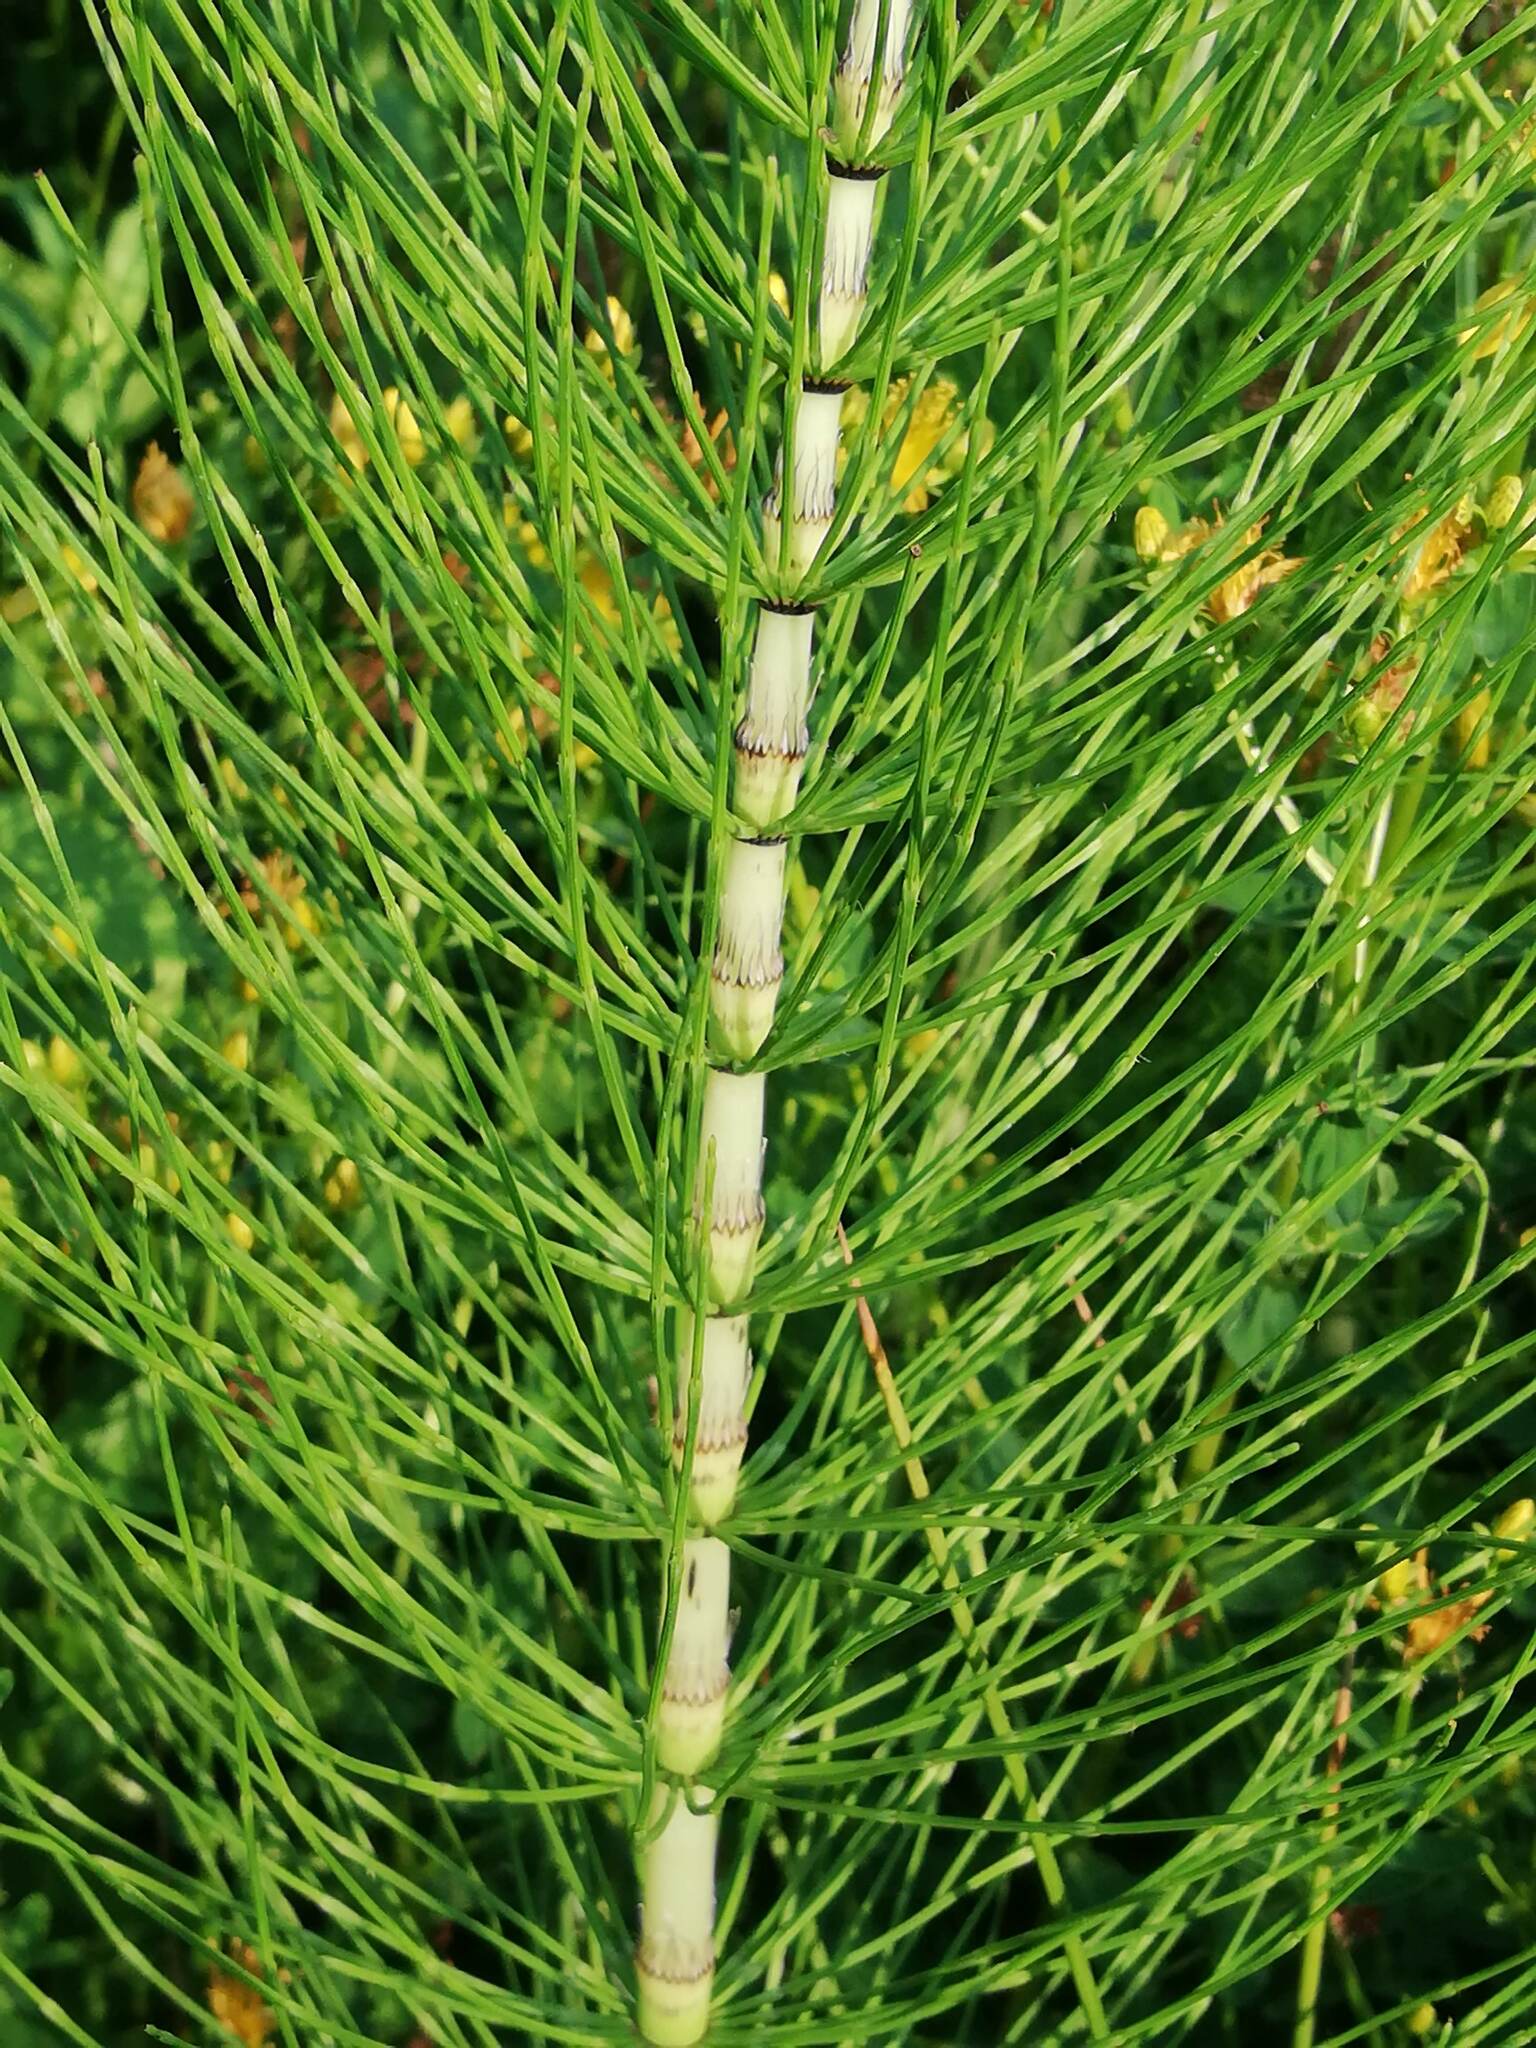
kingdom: Plantae
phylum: Tracheophyta
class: Polypodiopsida
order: Equisetales
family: Equisetaceae
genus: Equisetum
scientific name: Equisetum telmateia
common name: Great horsetail
